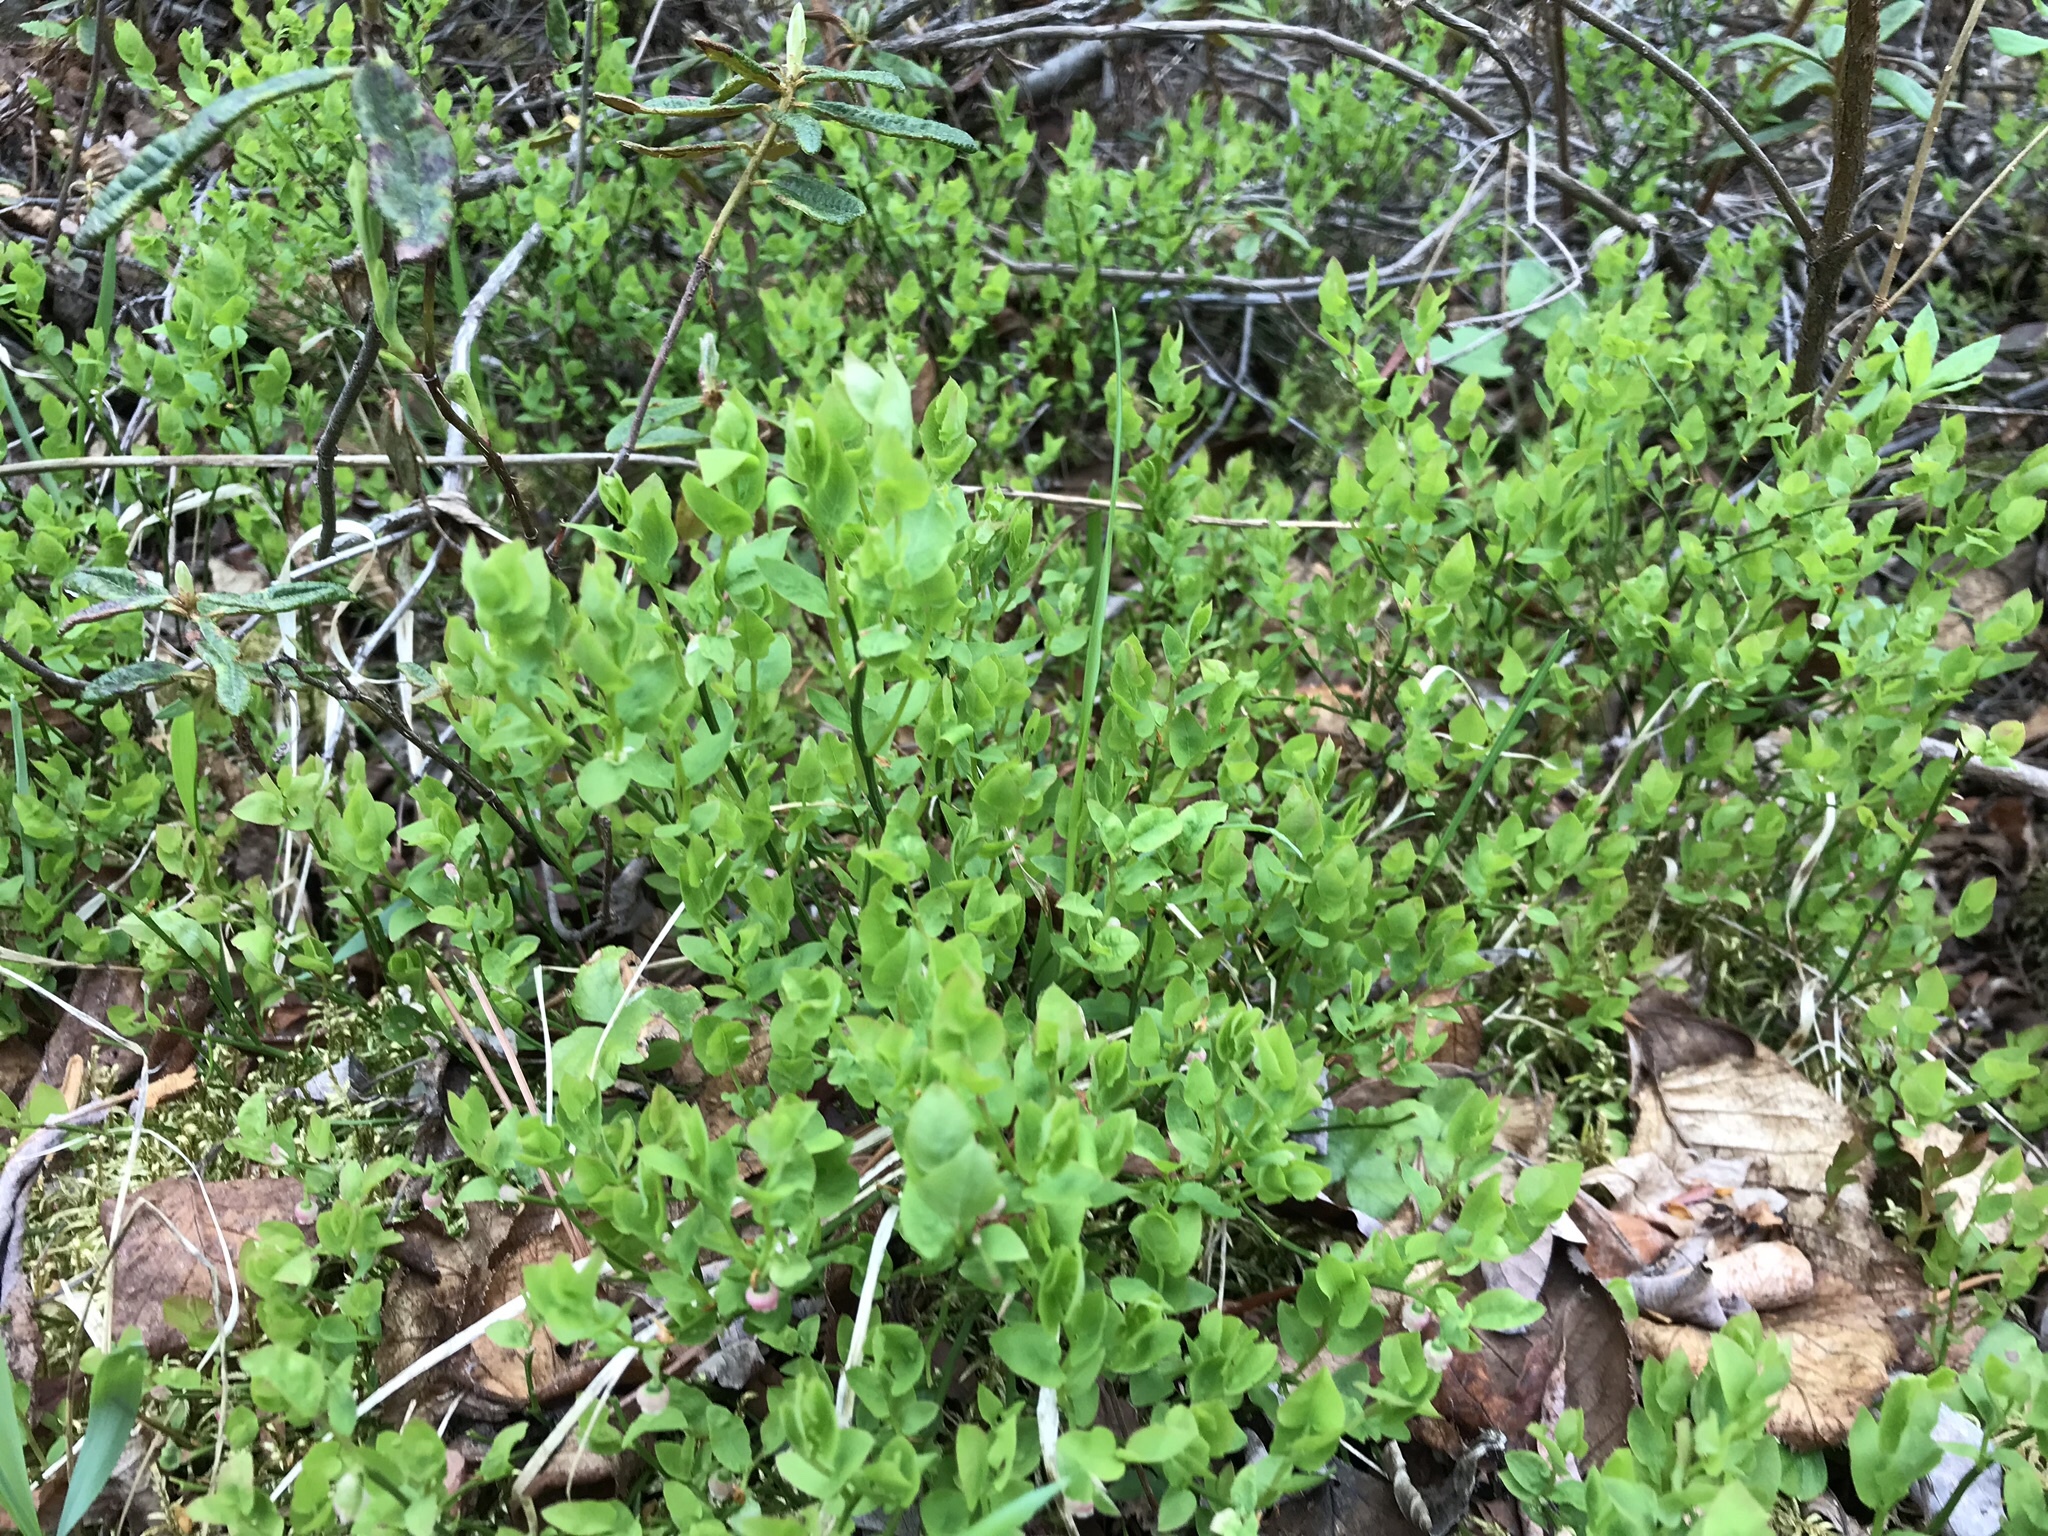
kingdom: Plantae
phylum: Tracheophyta
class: Magnoliopsida
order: Ericales
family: Ericaceae
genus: Vaccinium
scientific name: Vaccinium scoparium
